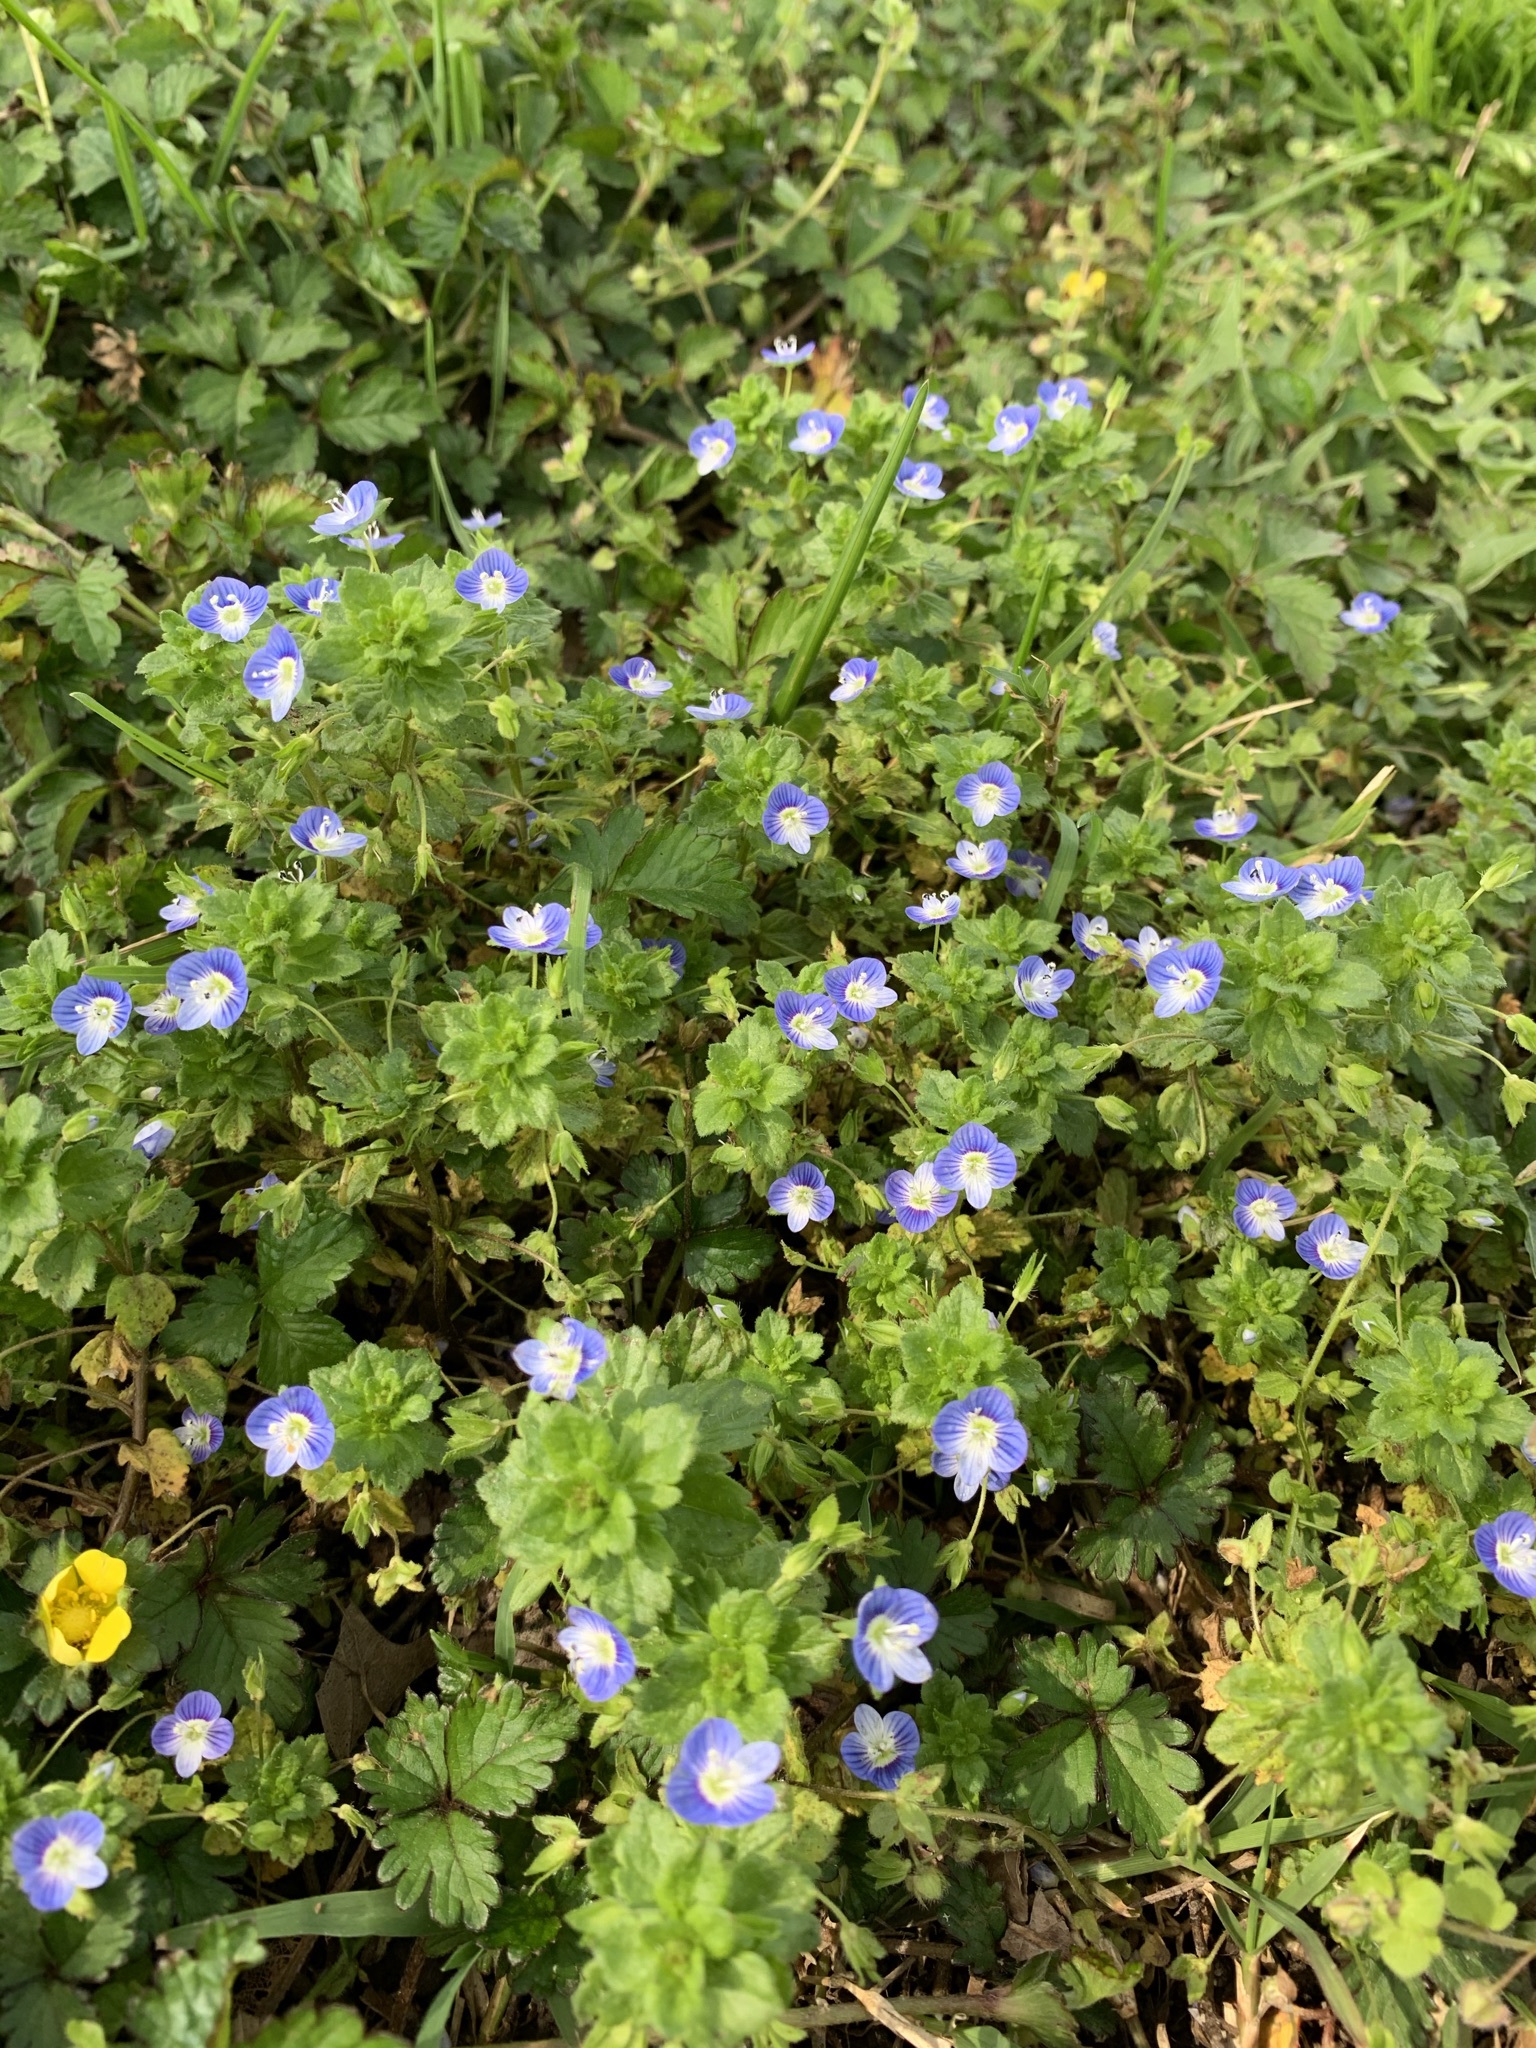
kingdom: Plantae
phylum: Tracheophyta
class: Magnoliopsida
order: Lamiales
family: Plantaginaceae
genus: Veronica
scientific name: Veronica persica
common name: Common field-speedwell
